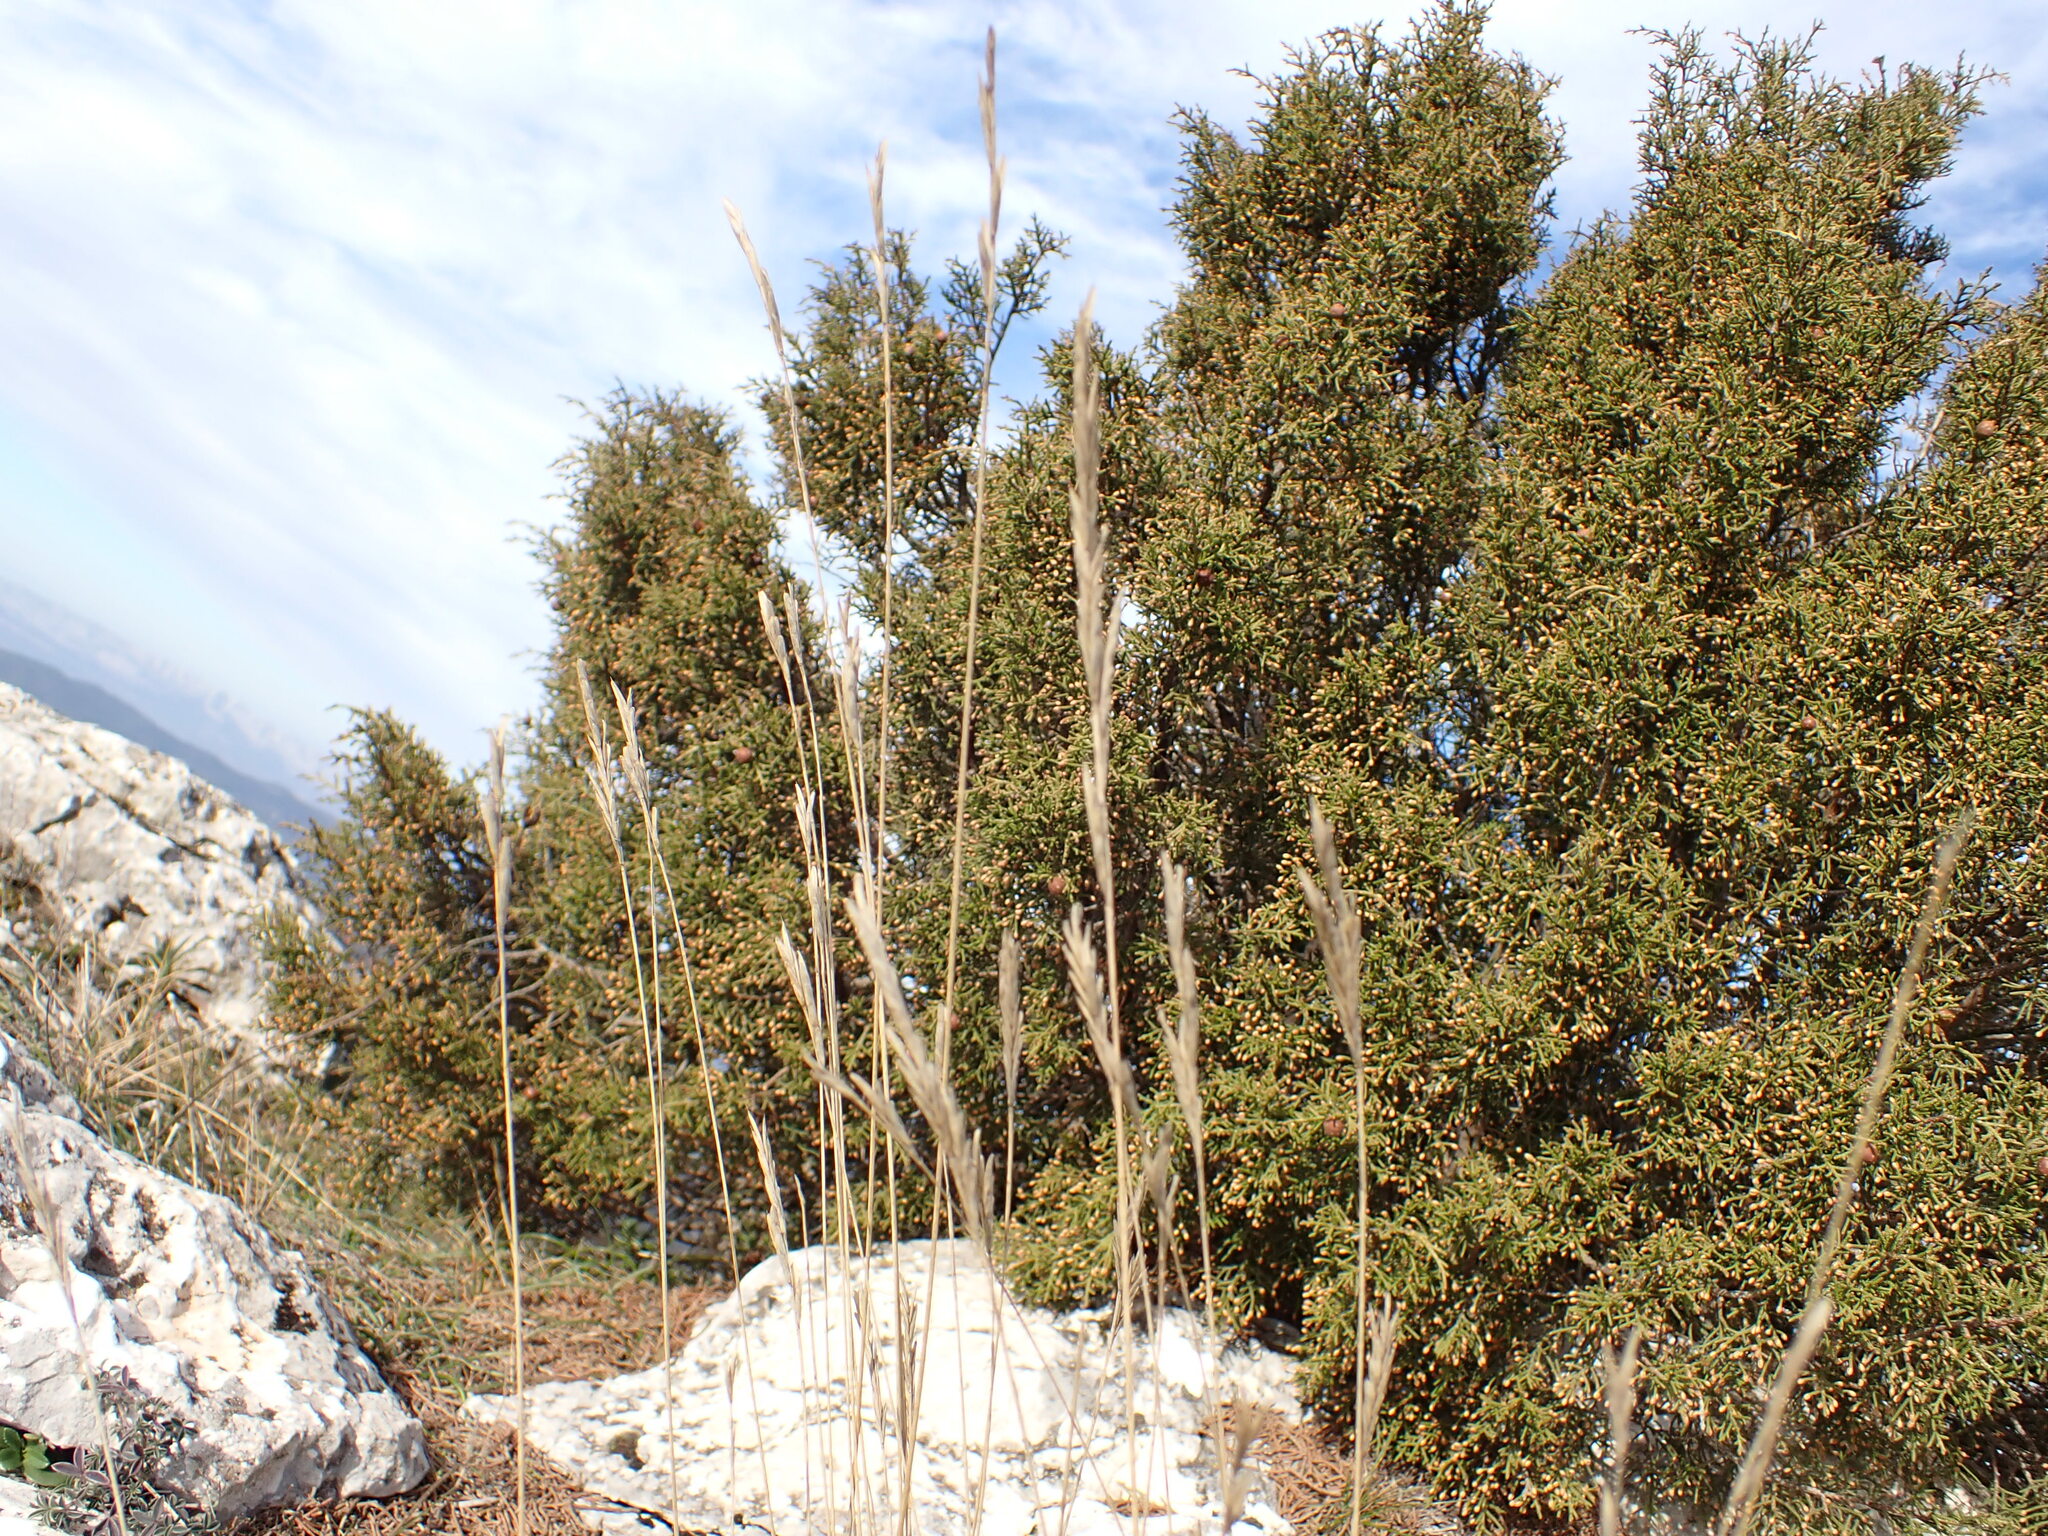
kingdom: Plantae
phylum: Tracheophyta
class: Liliopsida
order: Poales
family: Poaceae
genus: Brachypodium
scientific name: Brachypodium retusum
